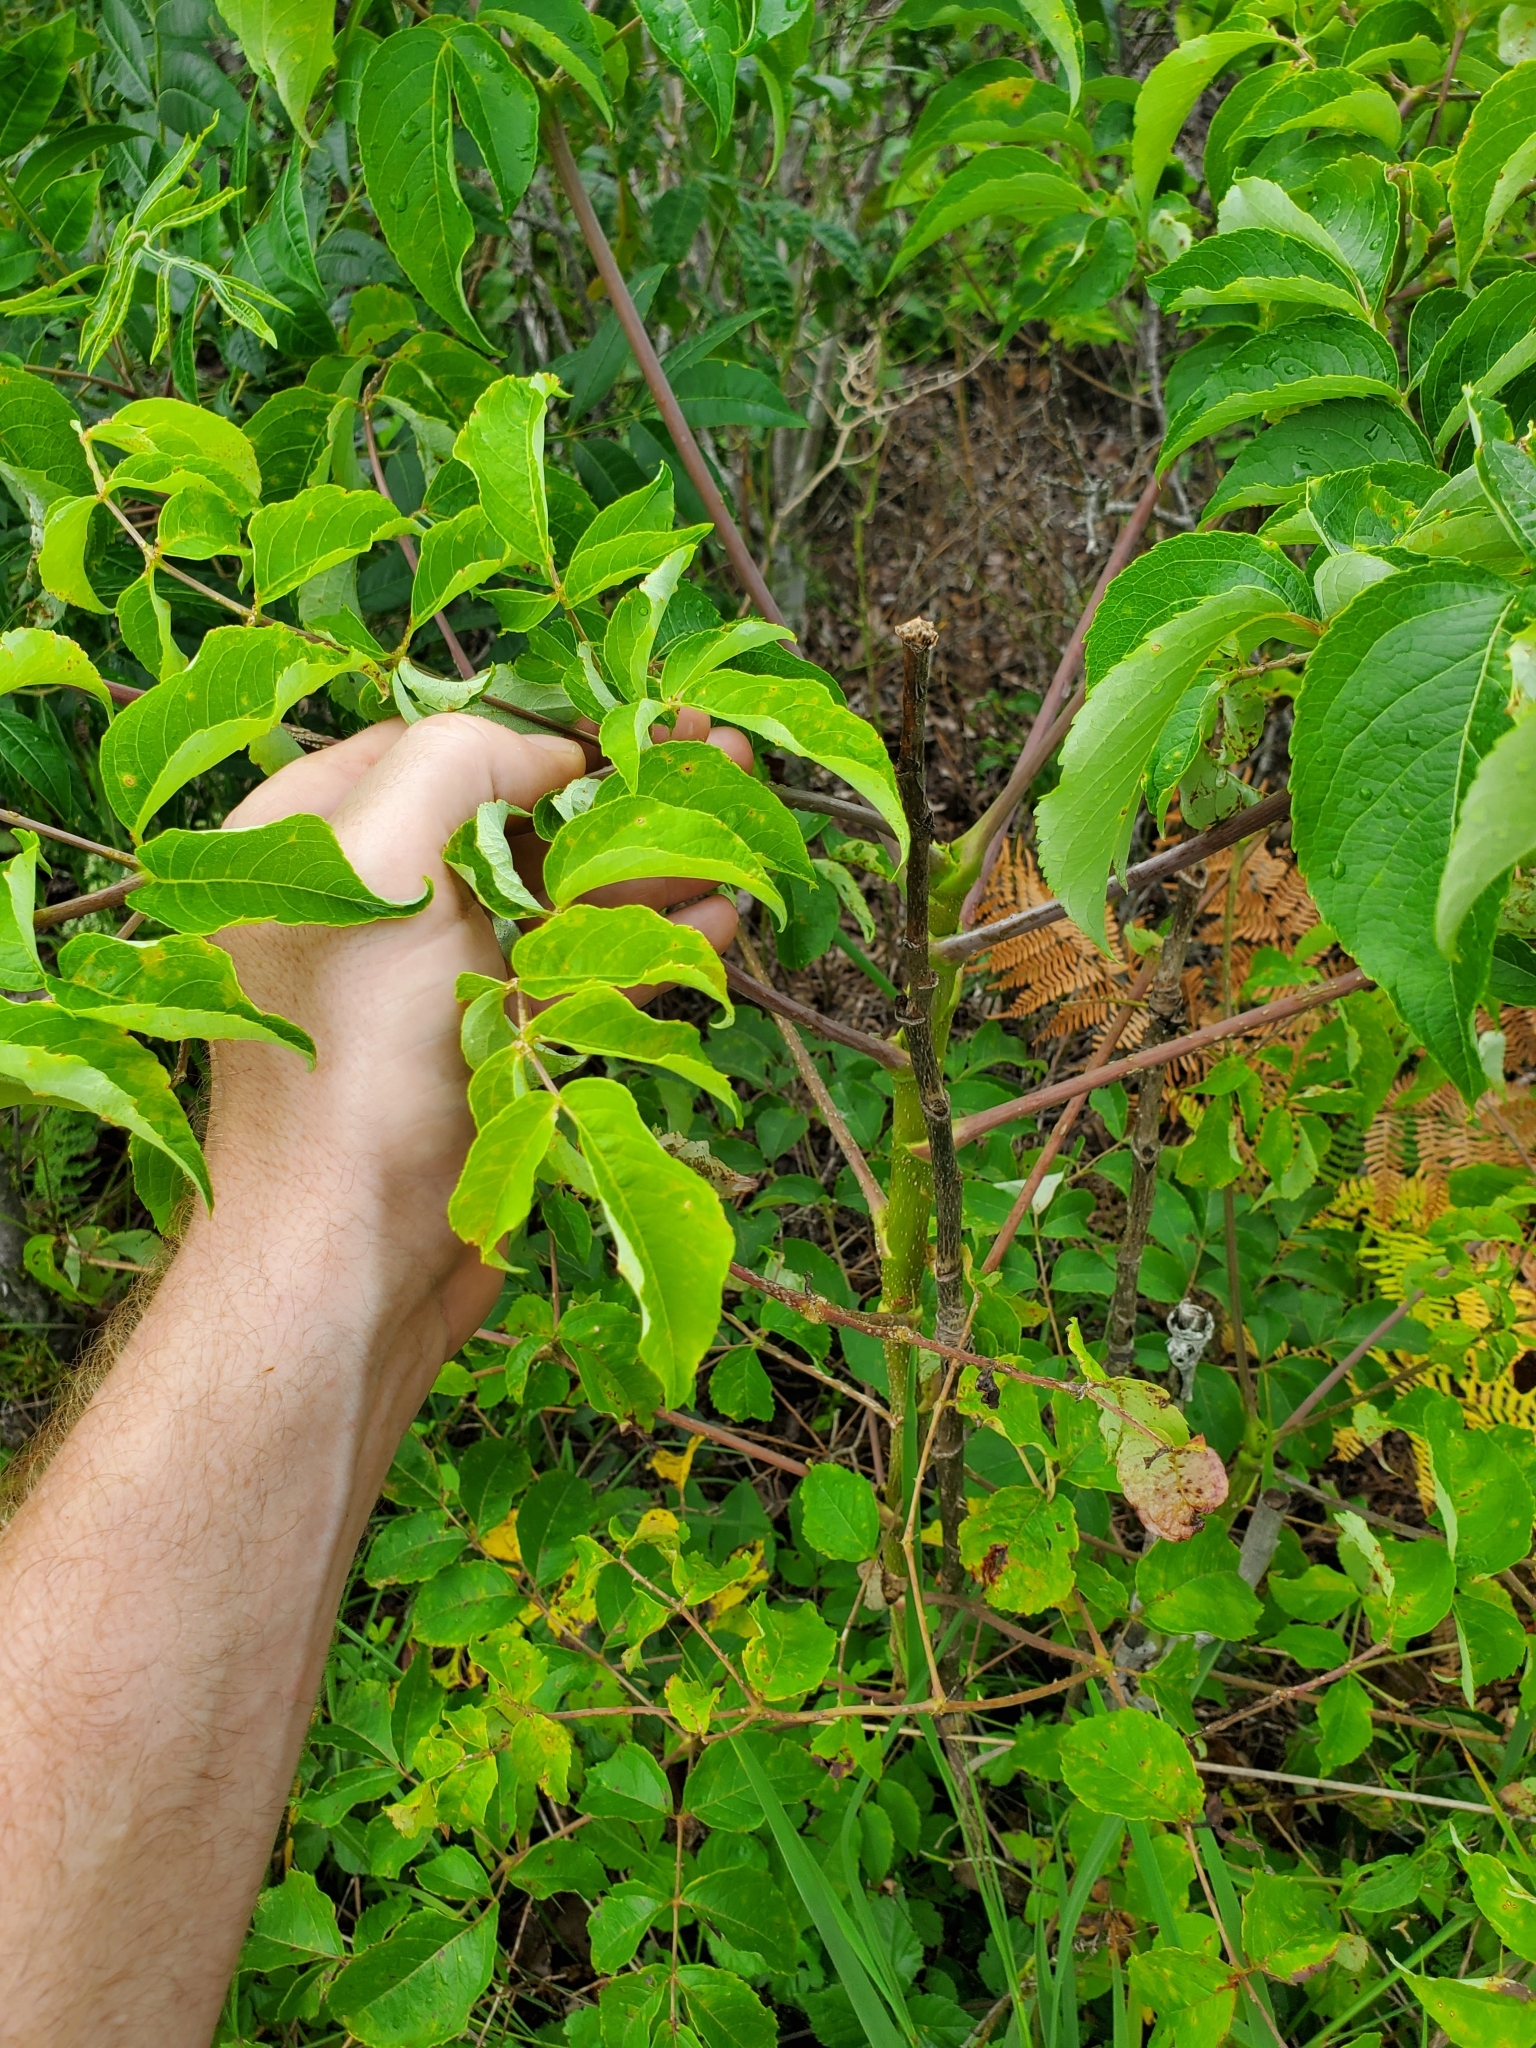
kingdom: Plantae
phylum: Tracheophyta
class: Magnoliopsida
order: Apiales
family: Araliaceae
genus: Aralia
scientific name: Aralia spinosa
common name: Hercules'-club
